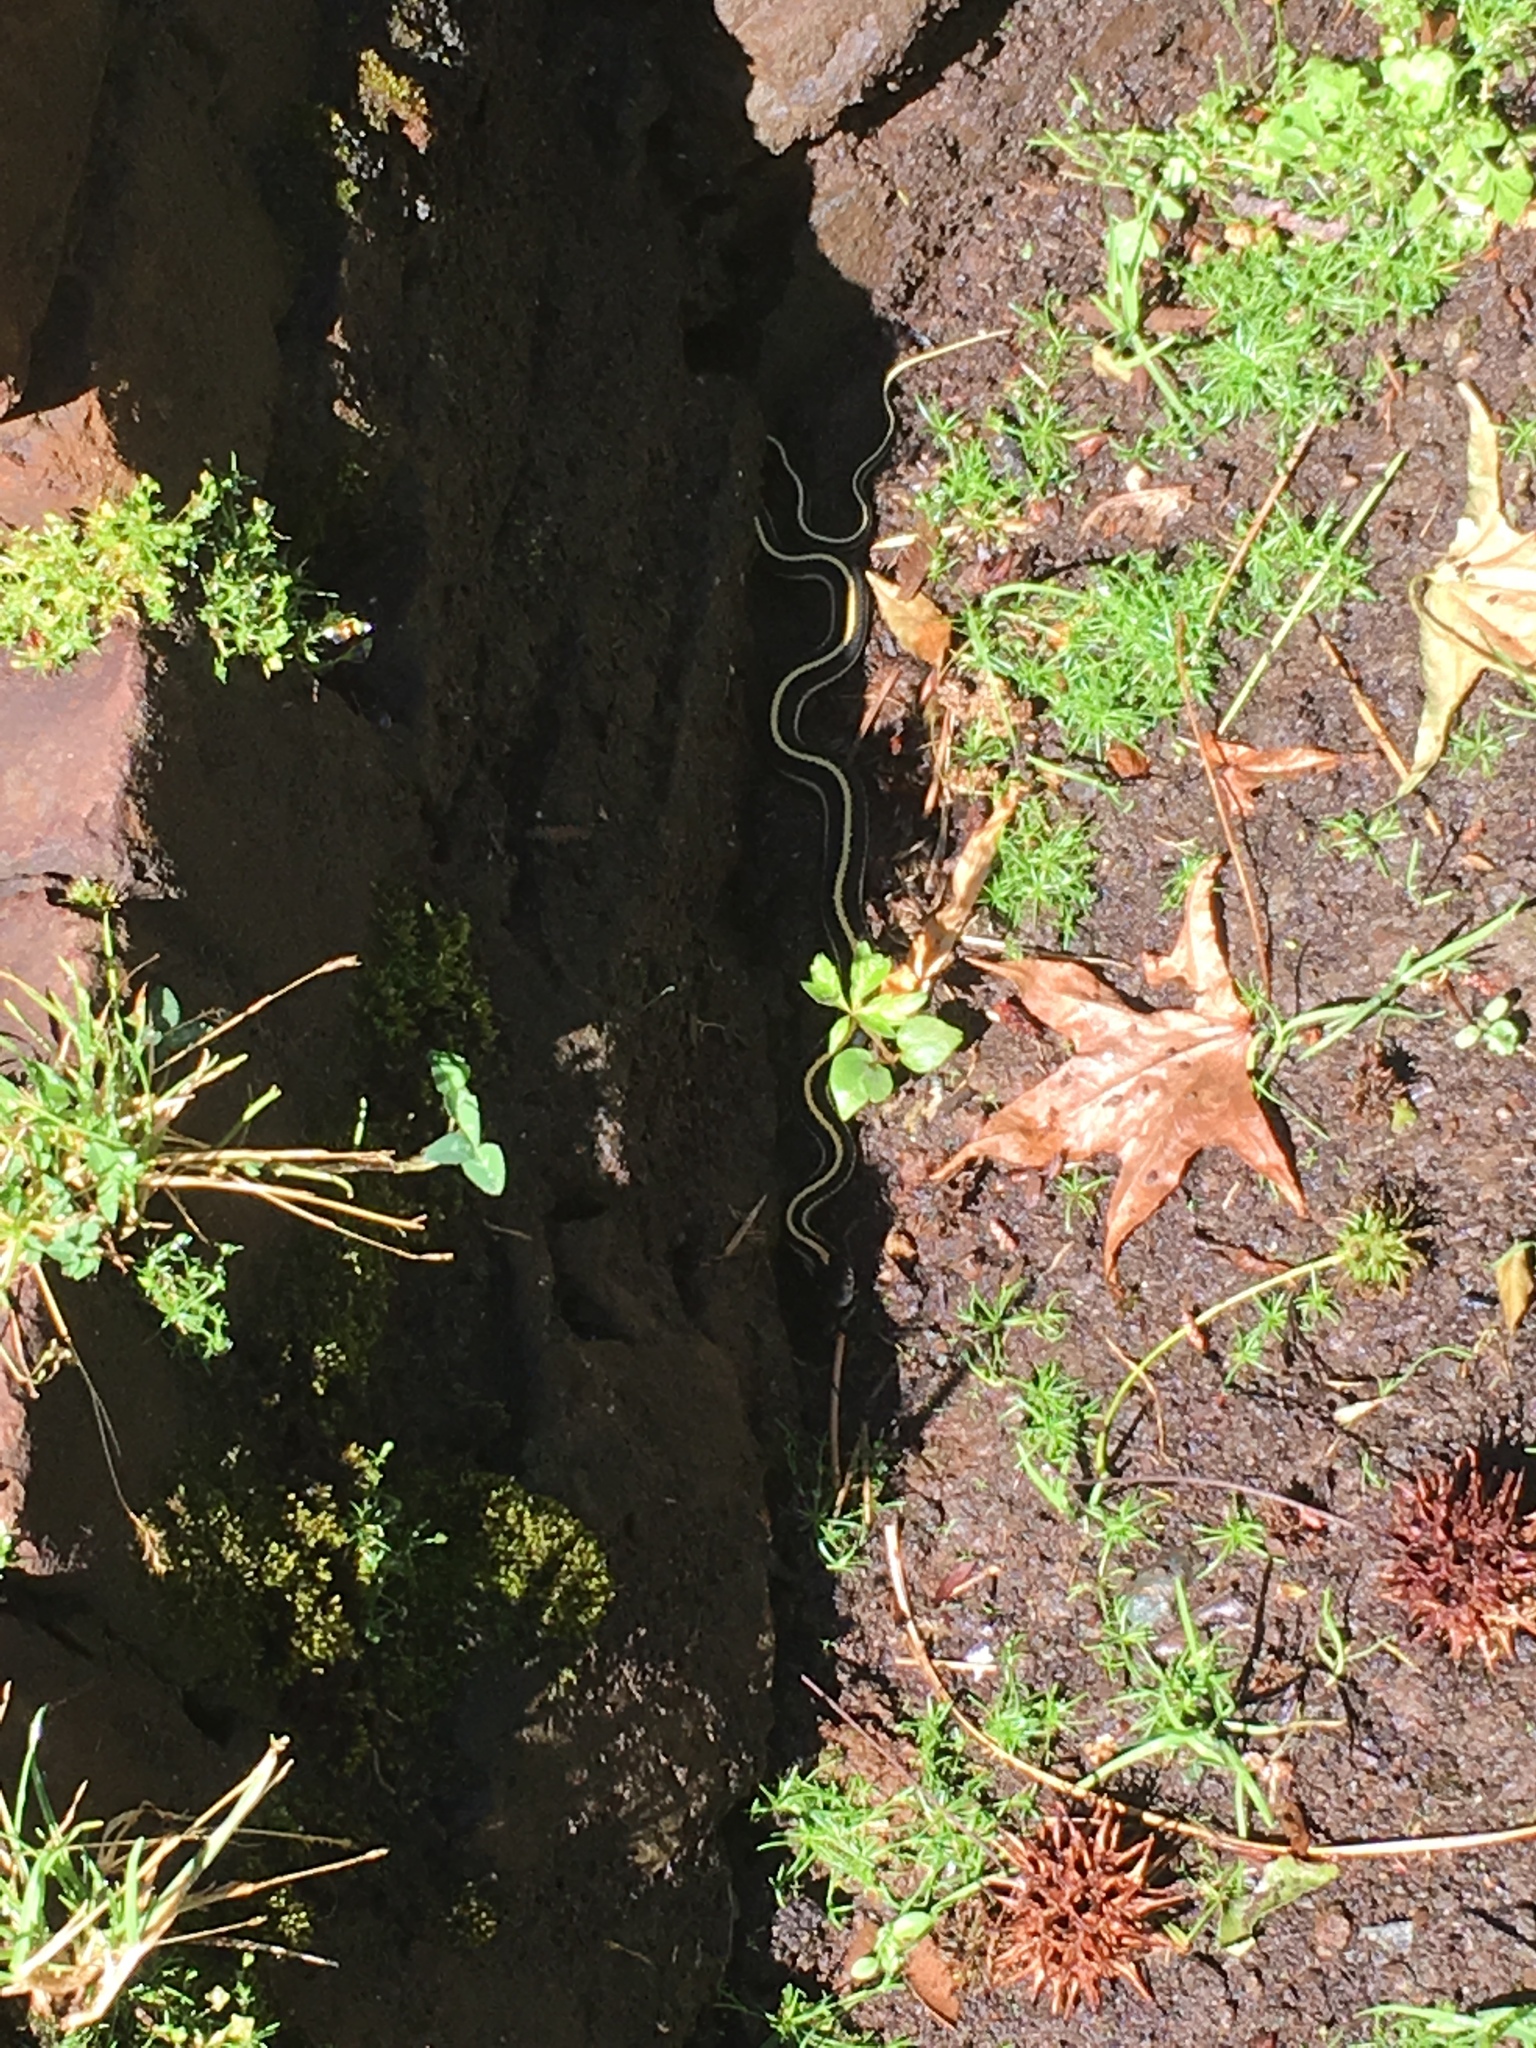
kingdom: Animalia
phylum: Chordata
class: Squamata
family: Colubridae
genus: Thamnophis
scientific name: Thamnophis elegans
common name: Western terrestrial garter snake
